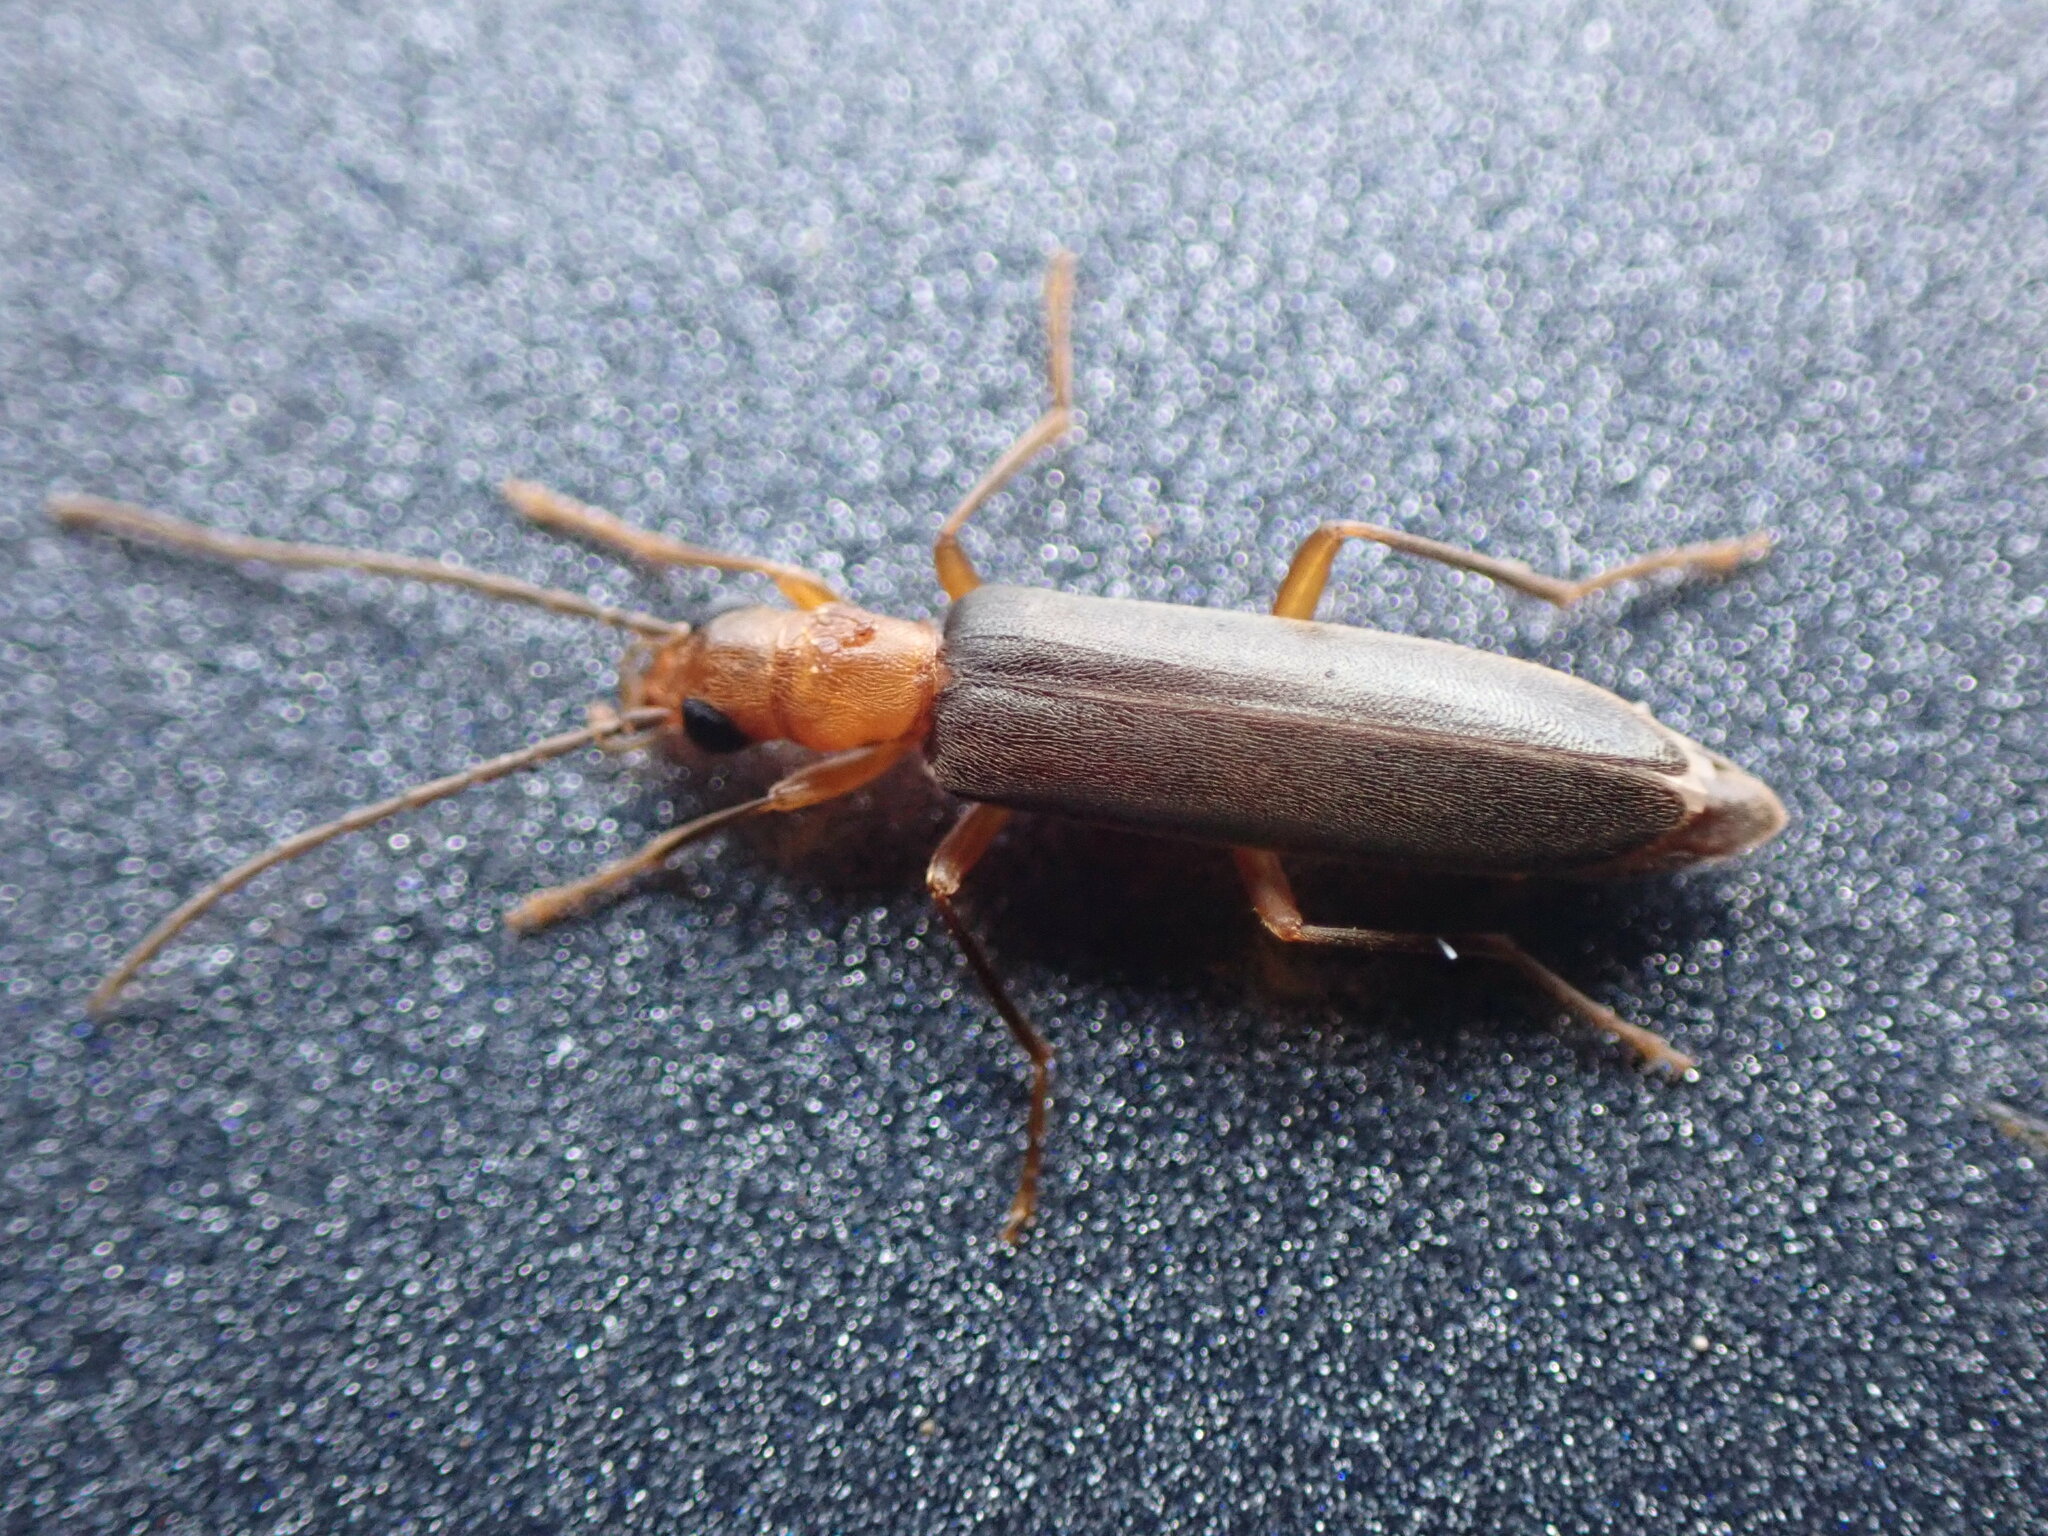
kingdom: Animalia
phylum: Arthropoda
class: Insecta
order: Coleoptera
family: Oedemeridae
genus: Xanthochroina
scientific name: Xanthochroina bicolor
